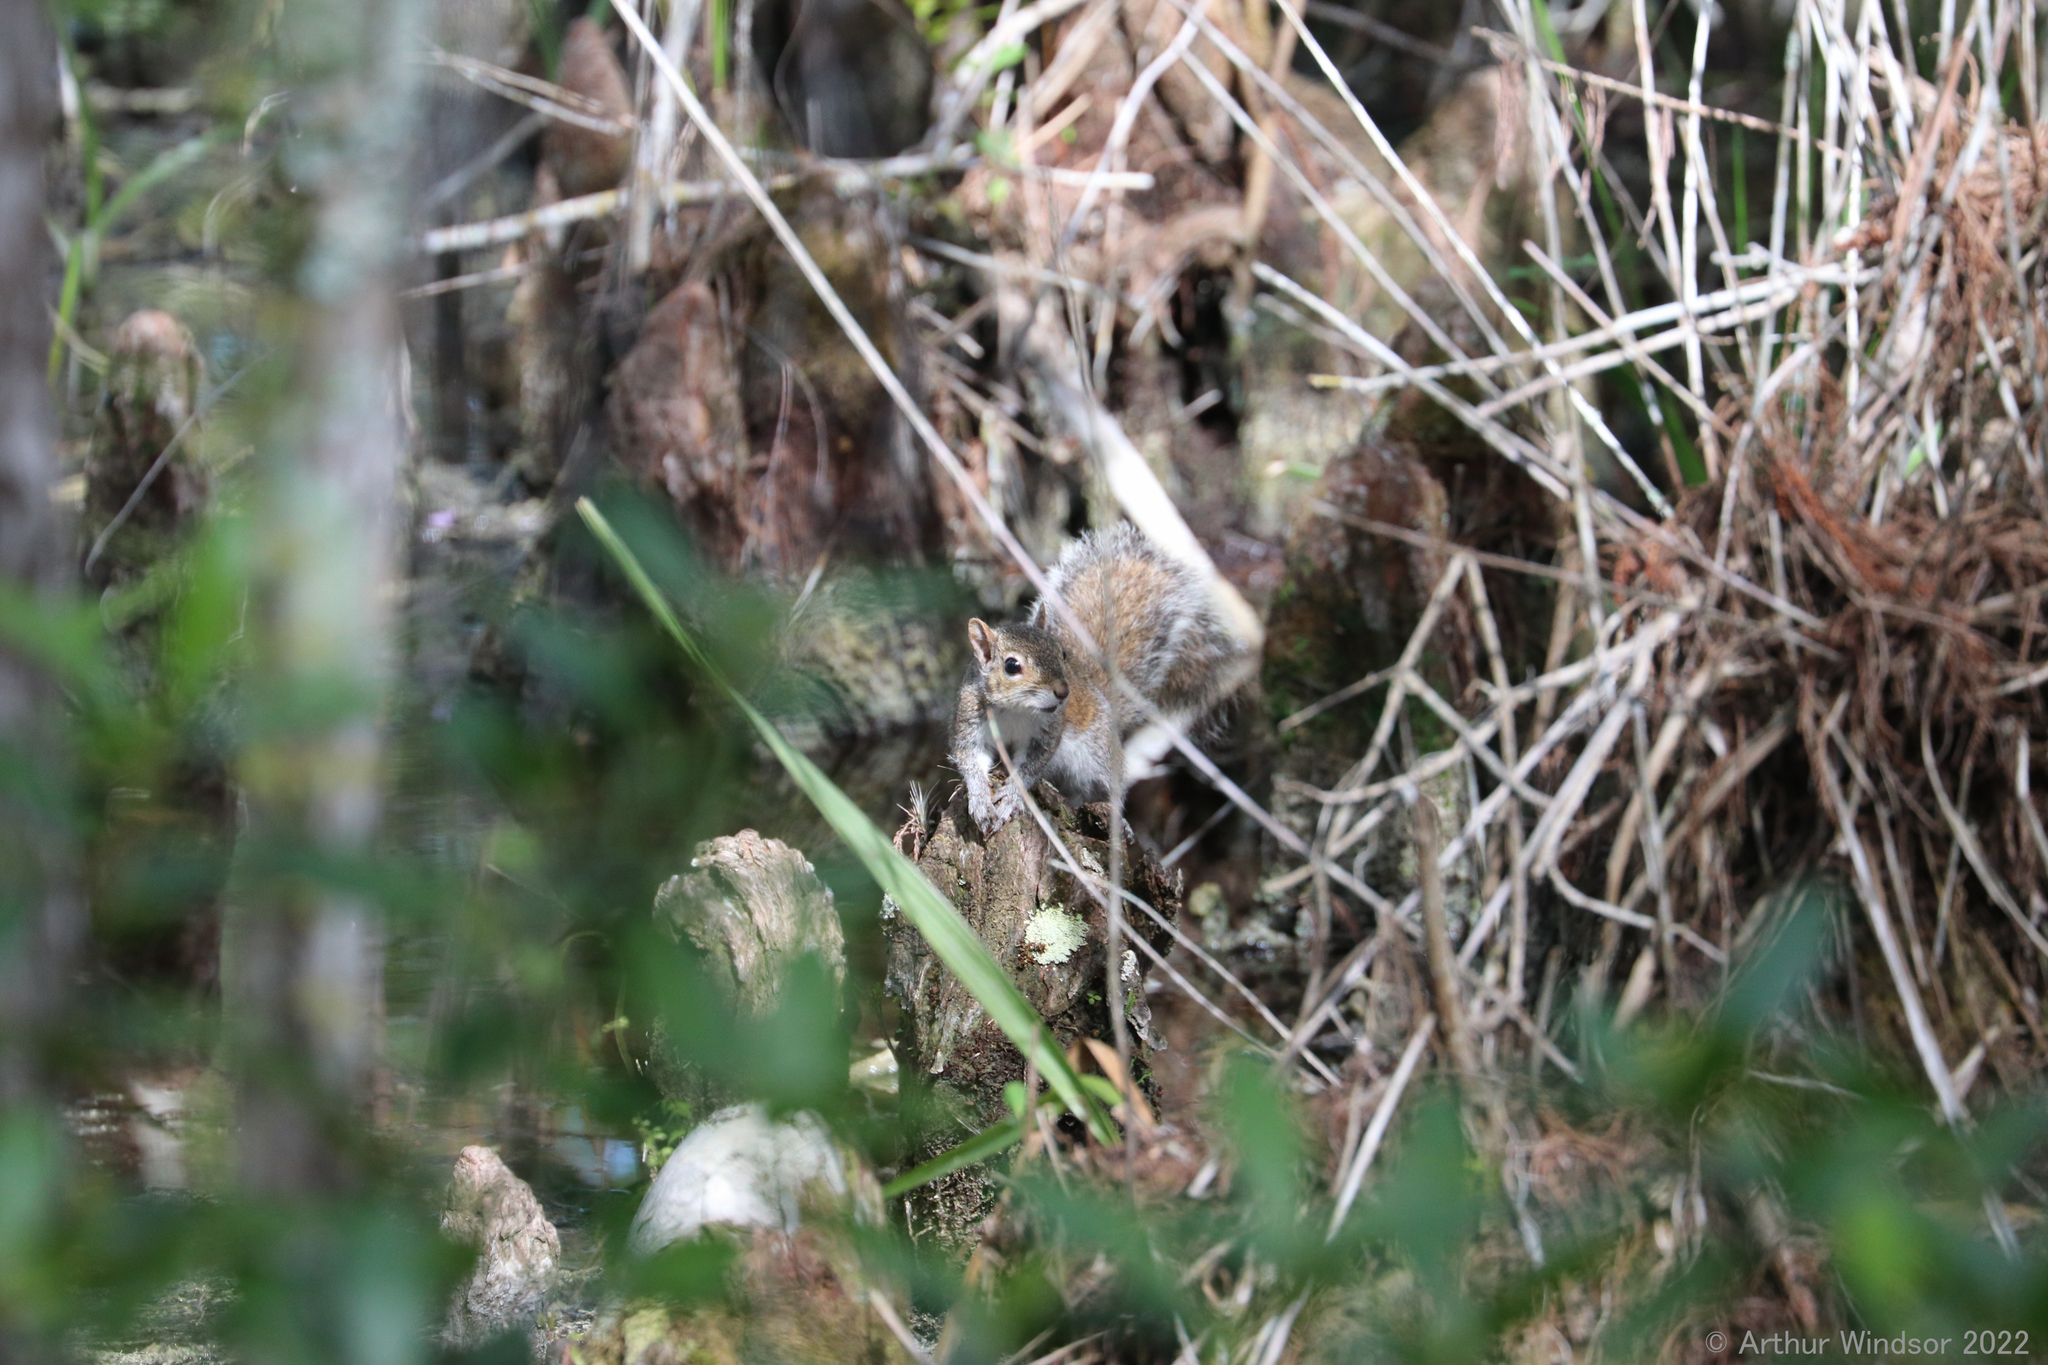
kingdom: Animalia
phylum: Chordata
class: Mammalia
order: Rodentia
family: Sciuridae
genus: Sciurus
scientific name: Sciurus carolinensis
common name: Eastern gray squirrel
